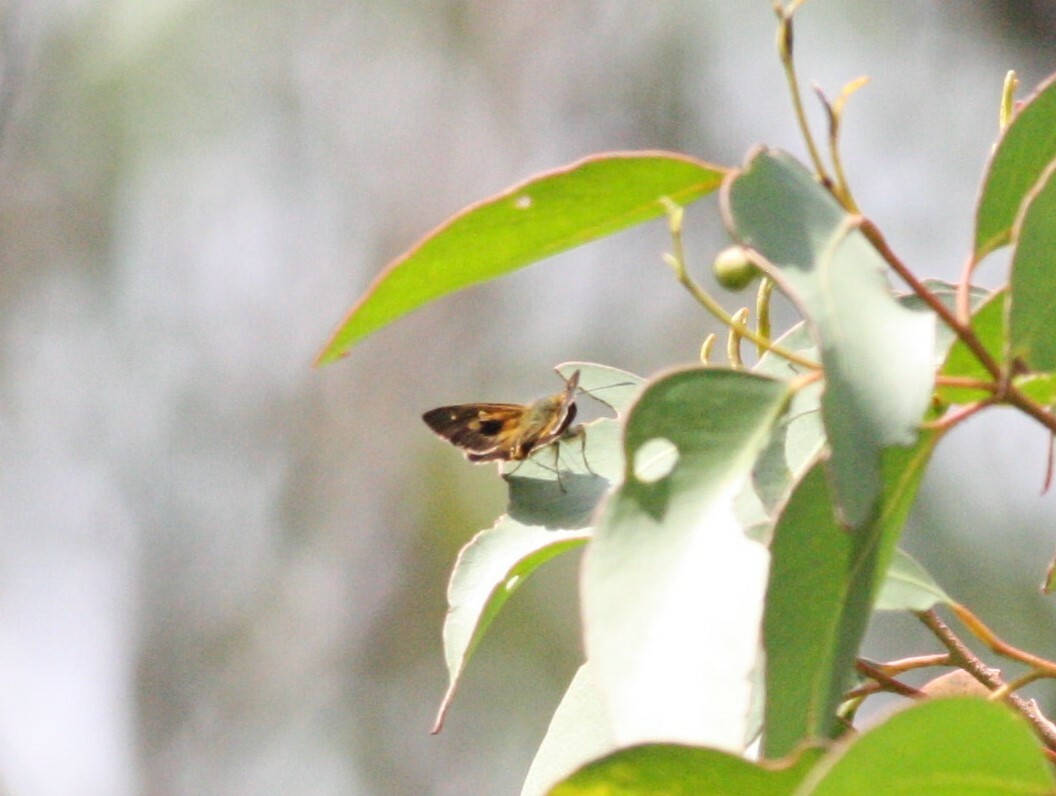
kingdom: Animalia
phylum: Arthropoda
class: Insecta
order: Lepidoptera
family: Hesperiidae
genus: Toxidia
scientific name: Toxidia
